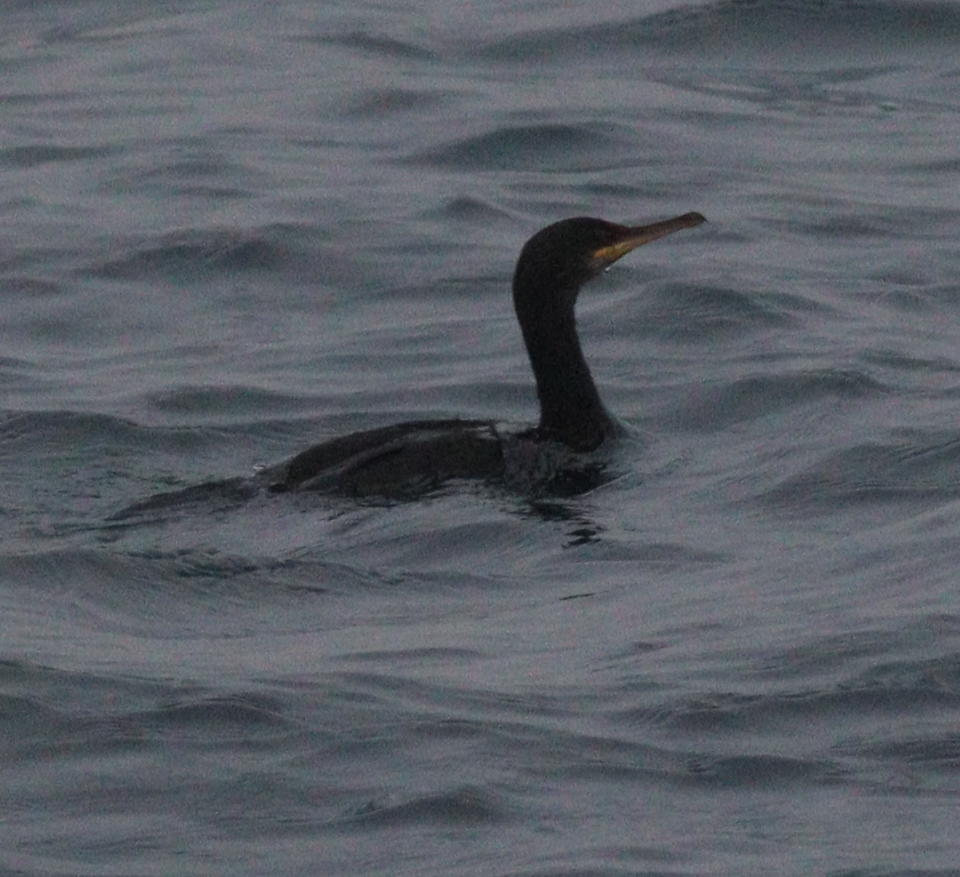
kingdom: Animalia
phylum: Chordata
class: Aves
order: Suliformes
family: Phalacrocoracidae
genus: Phalacrocorax
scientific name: Phalacrocorax aristotelis
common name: European shag
